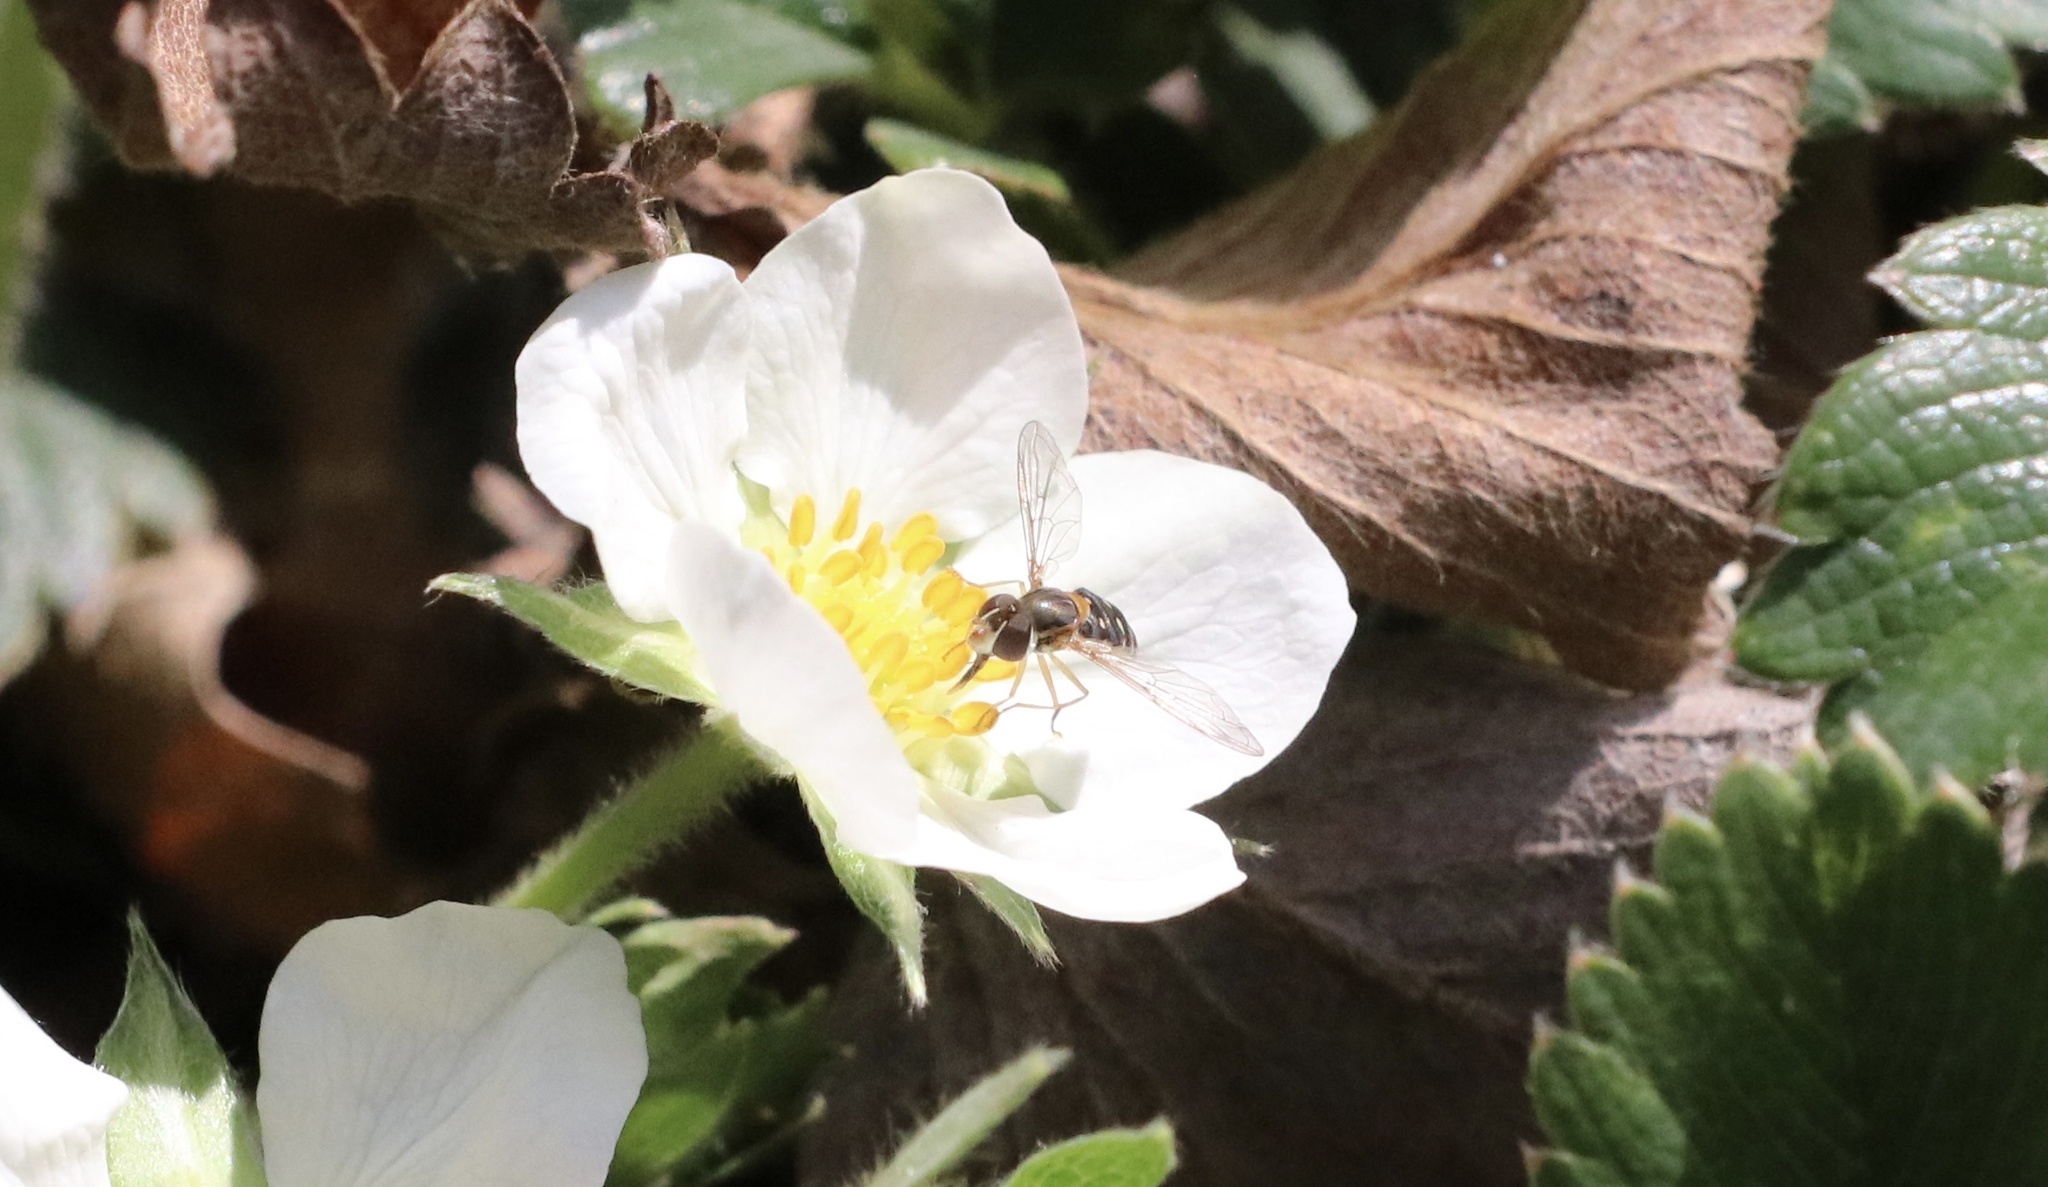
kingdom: Animalia
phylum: Arthropoda
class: Insecta
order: Diptera
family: Syrphidae
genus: Toxomerus
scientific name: Toxomerus vertebratus
